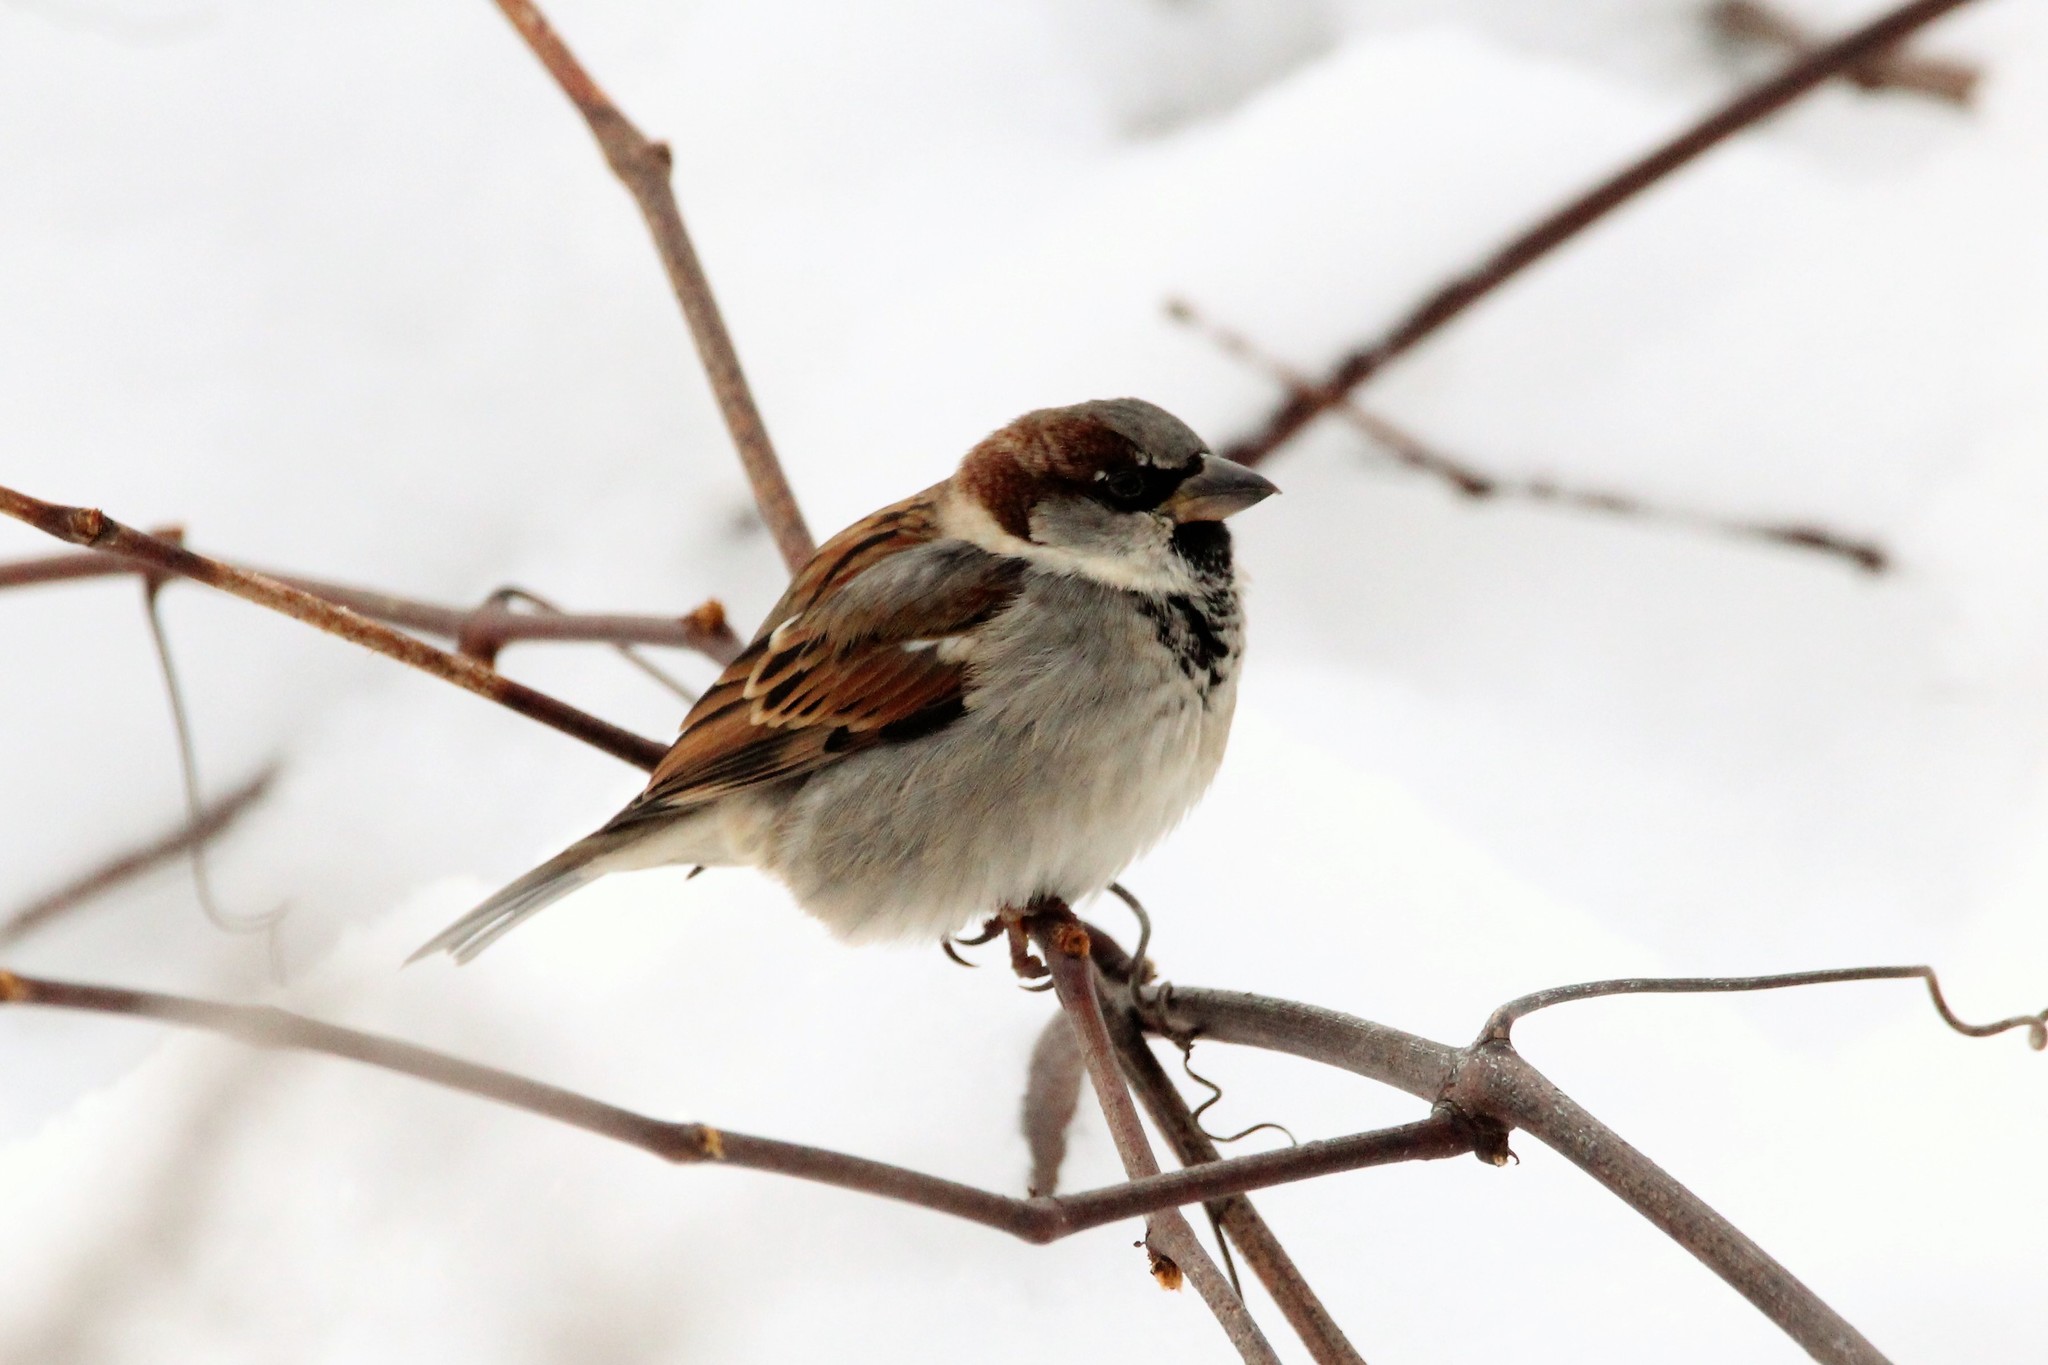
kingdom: Animalia
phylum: Chordata
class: Aves
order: Passeriformes
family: Passeridae
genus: Passer
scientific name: Passer domesticus
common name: House sparrow
